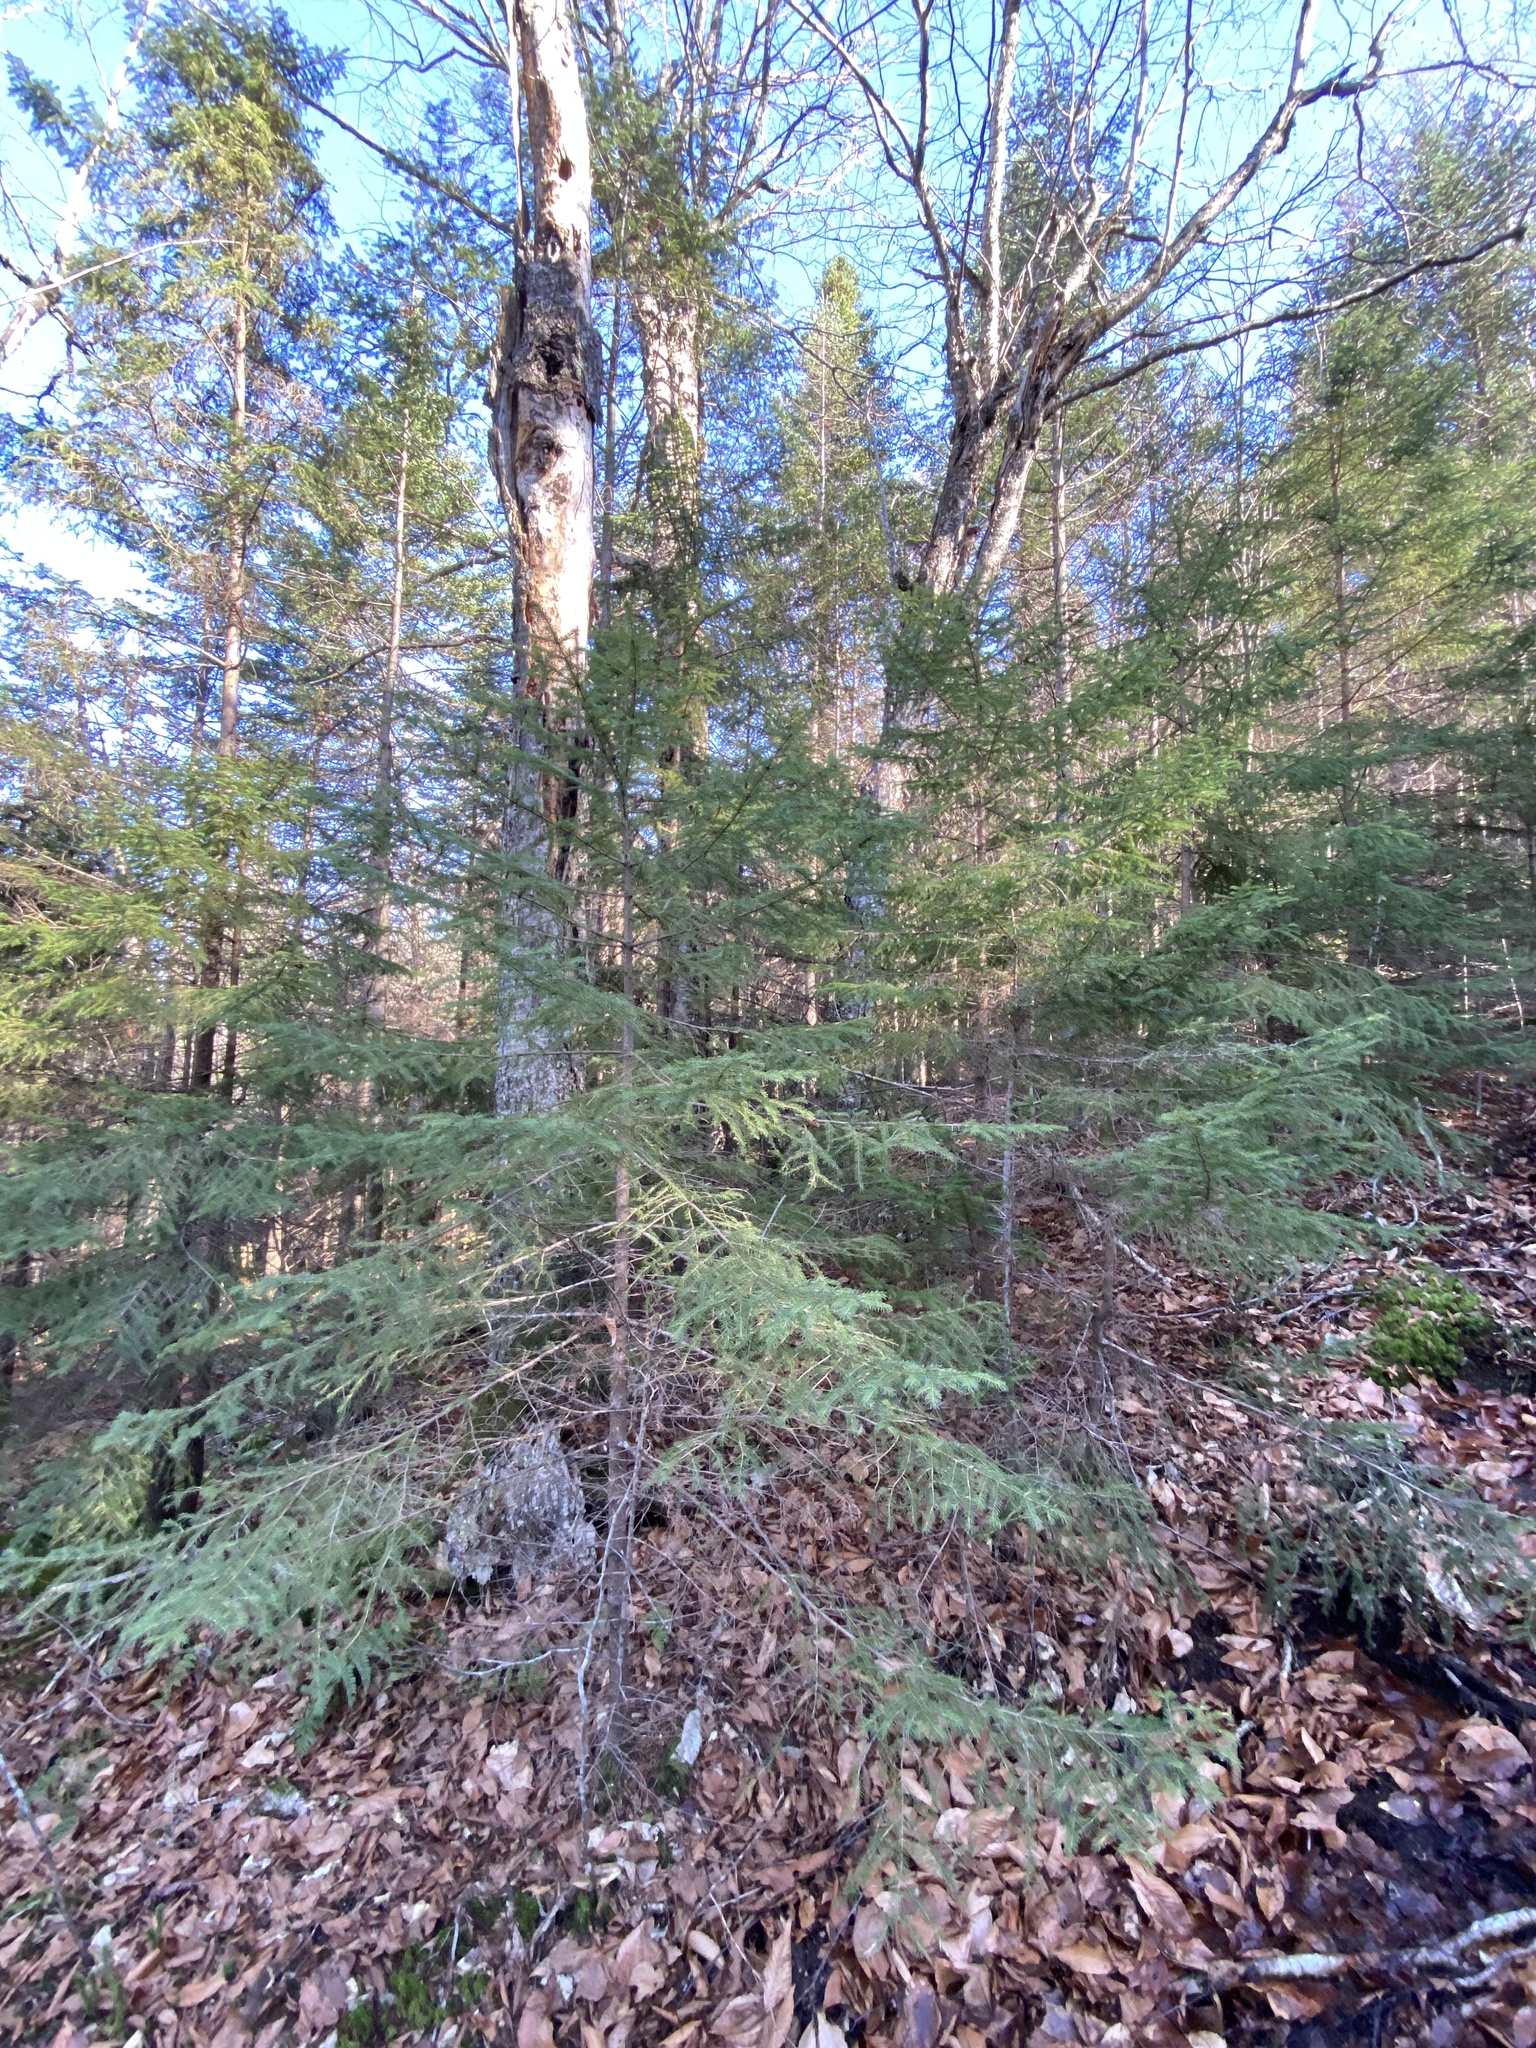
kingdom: Plantae
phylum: Tracheophyta
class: Pinopsida
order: Pinales
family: Pinaceae
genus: Picea
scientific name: Picea rubens
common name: Red spruce
